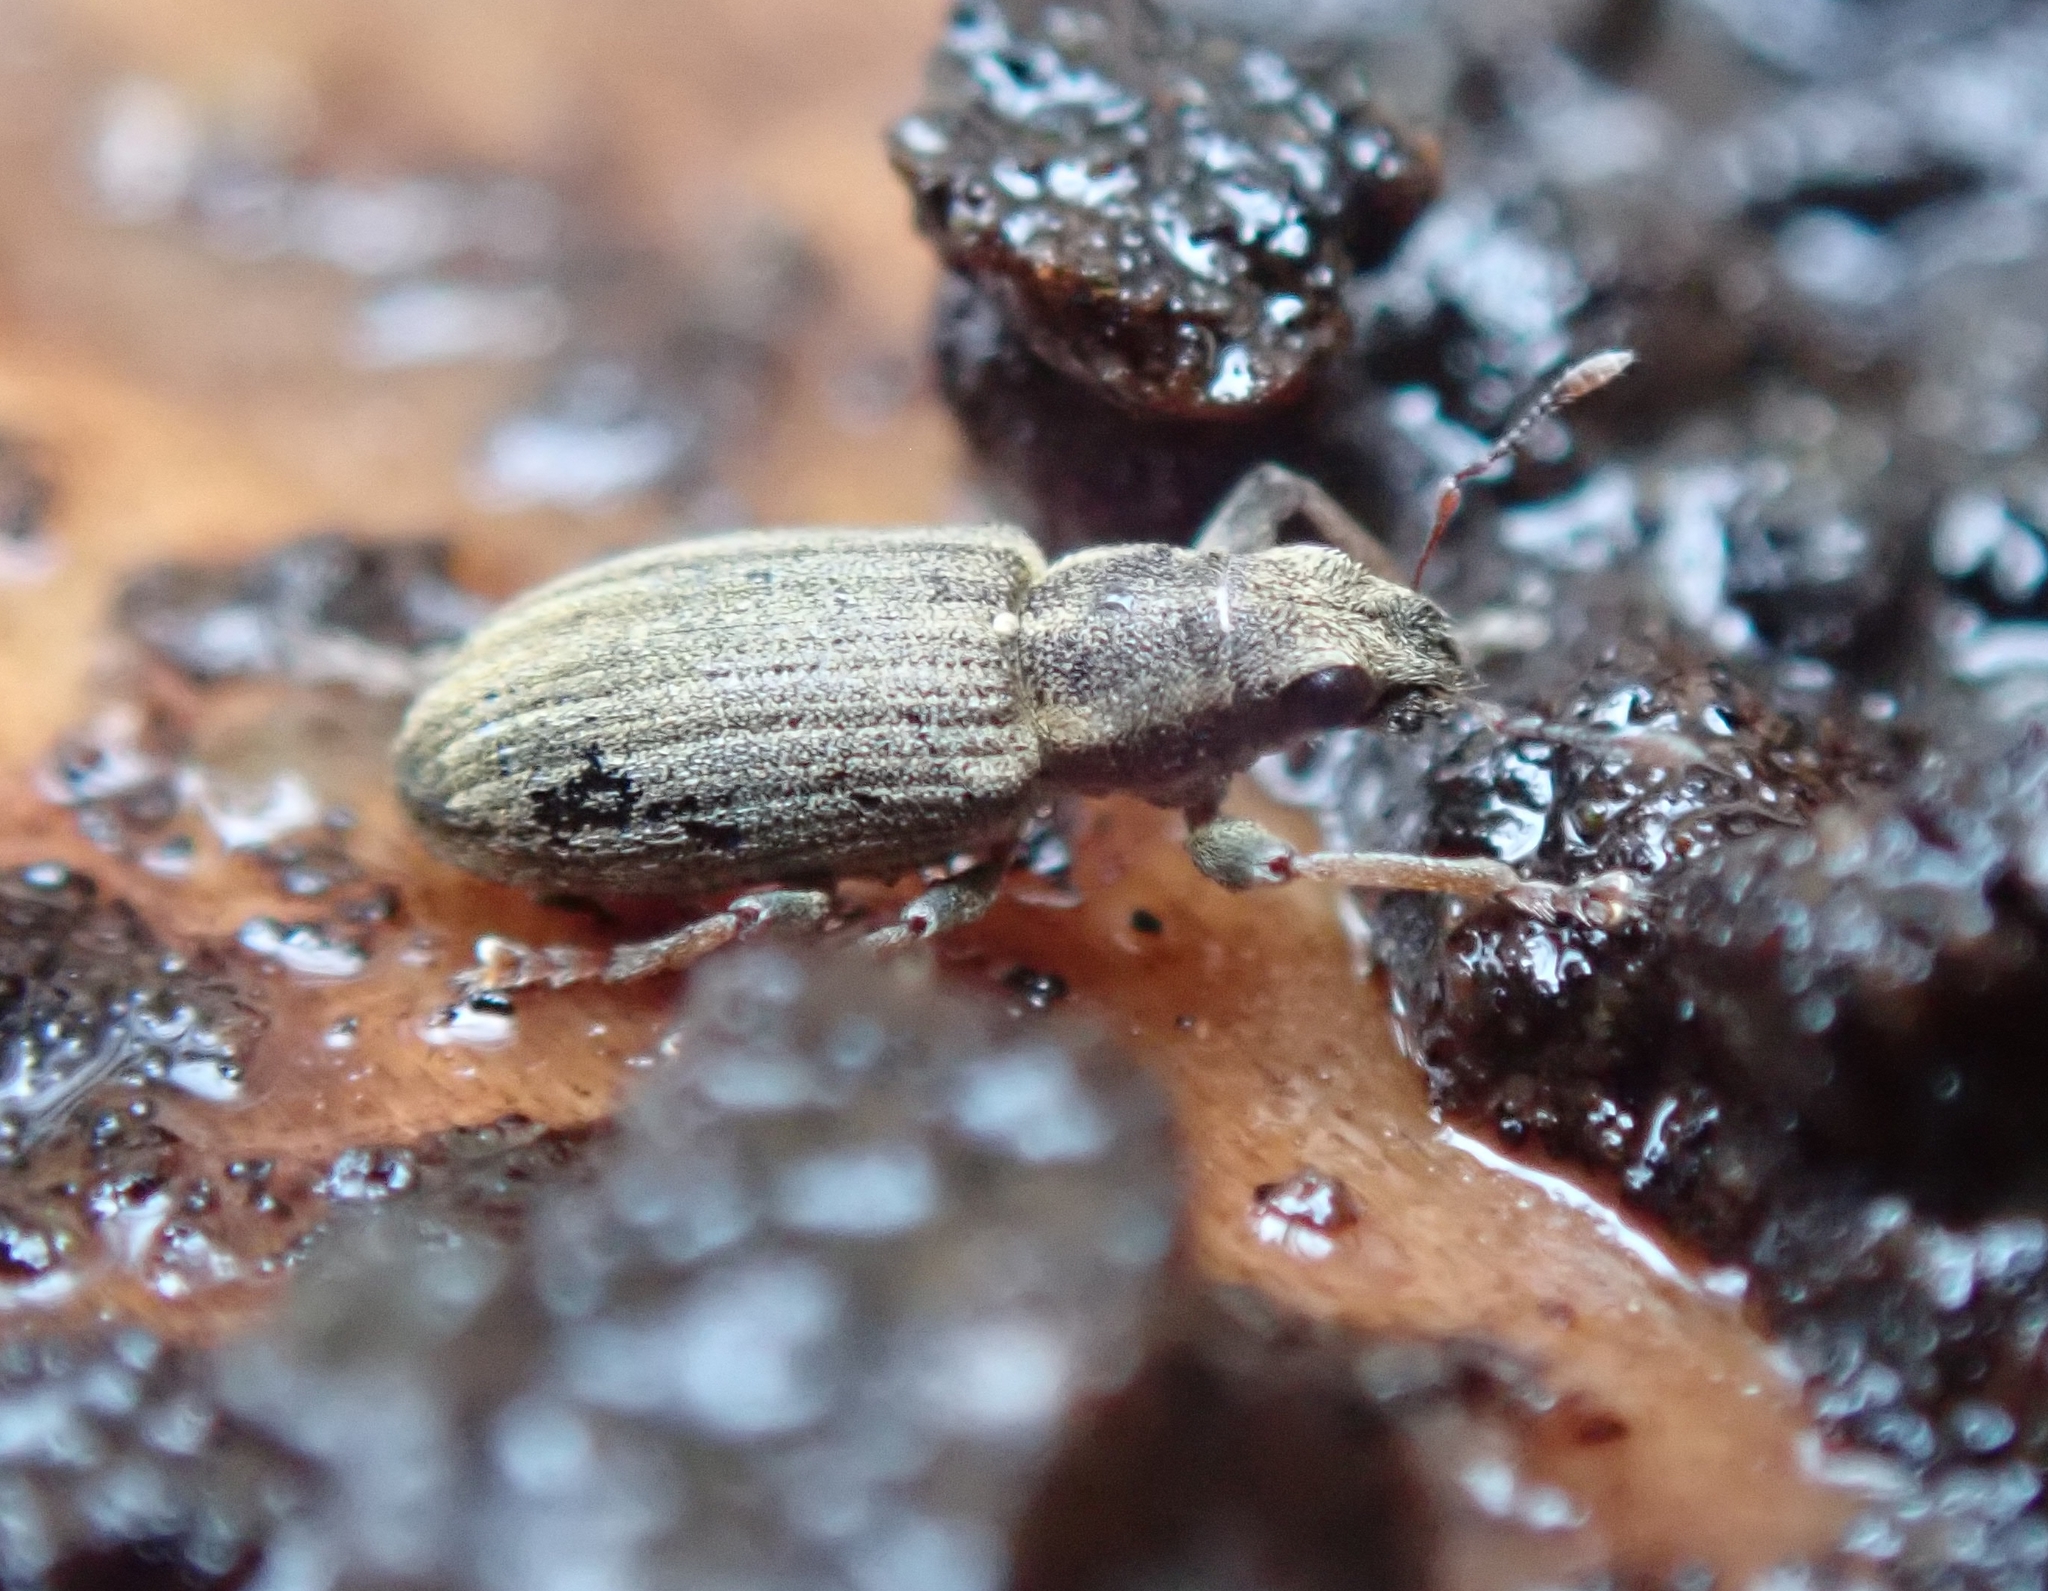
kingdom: Animalia
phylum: Arthropoda
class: Insecta
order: Coleoptera
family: Curculionidae
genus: Sitona
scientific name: Sitona lineatus
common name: Weevil
